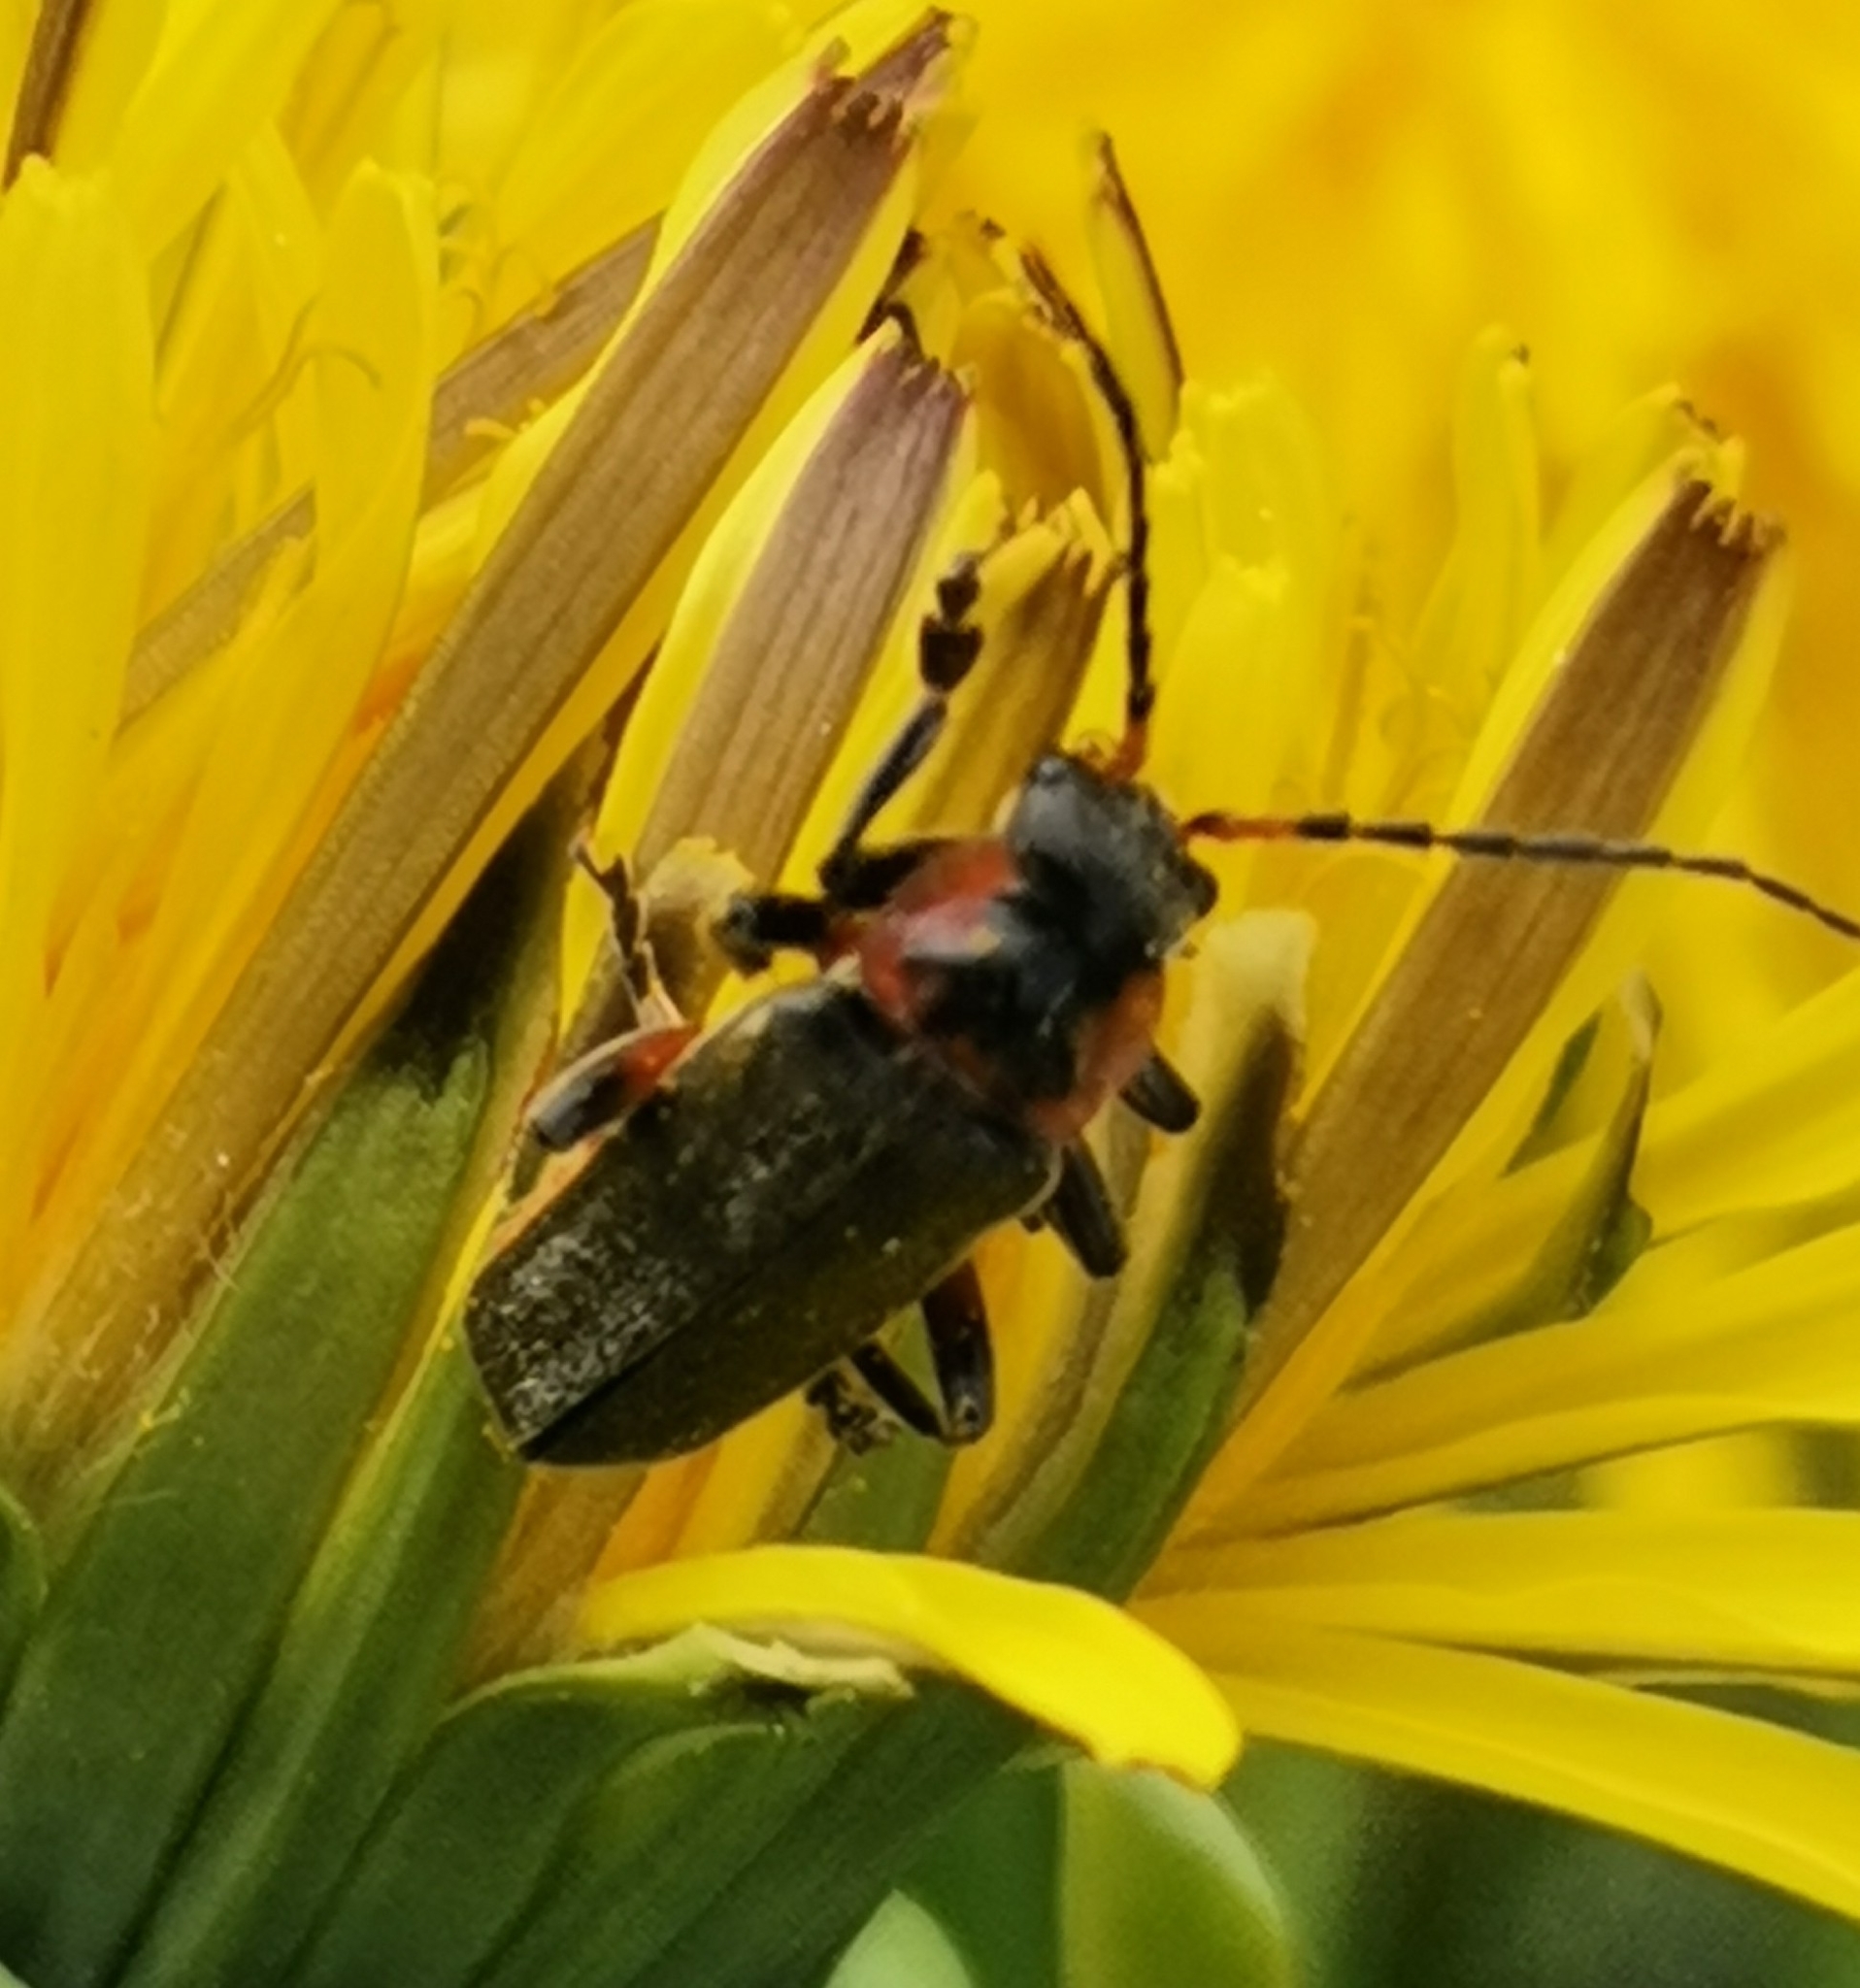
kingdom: Animalia
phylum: Arthropoda
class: Insecta
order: Coleoptera
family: Cantharidae
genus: Cantharis
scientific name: Cantharis rustica
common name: Soldier beetle
